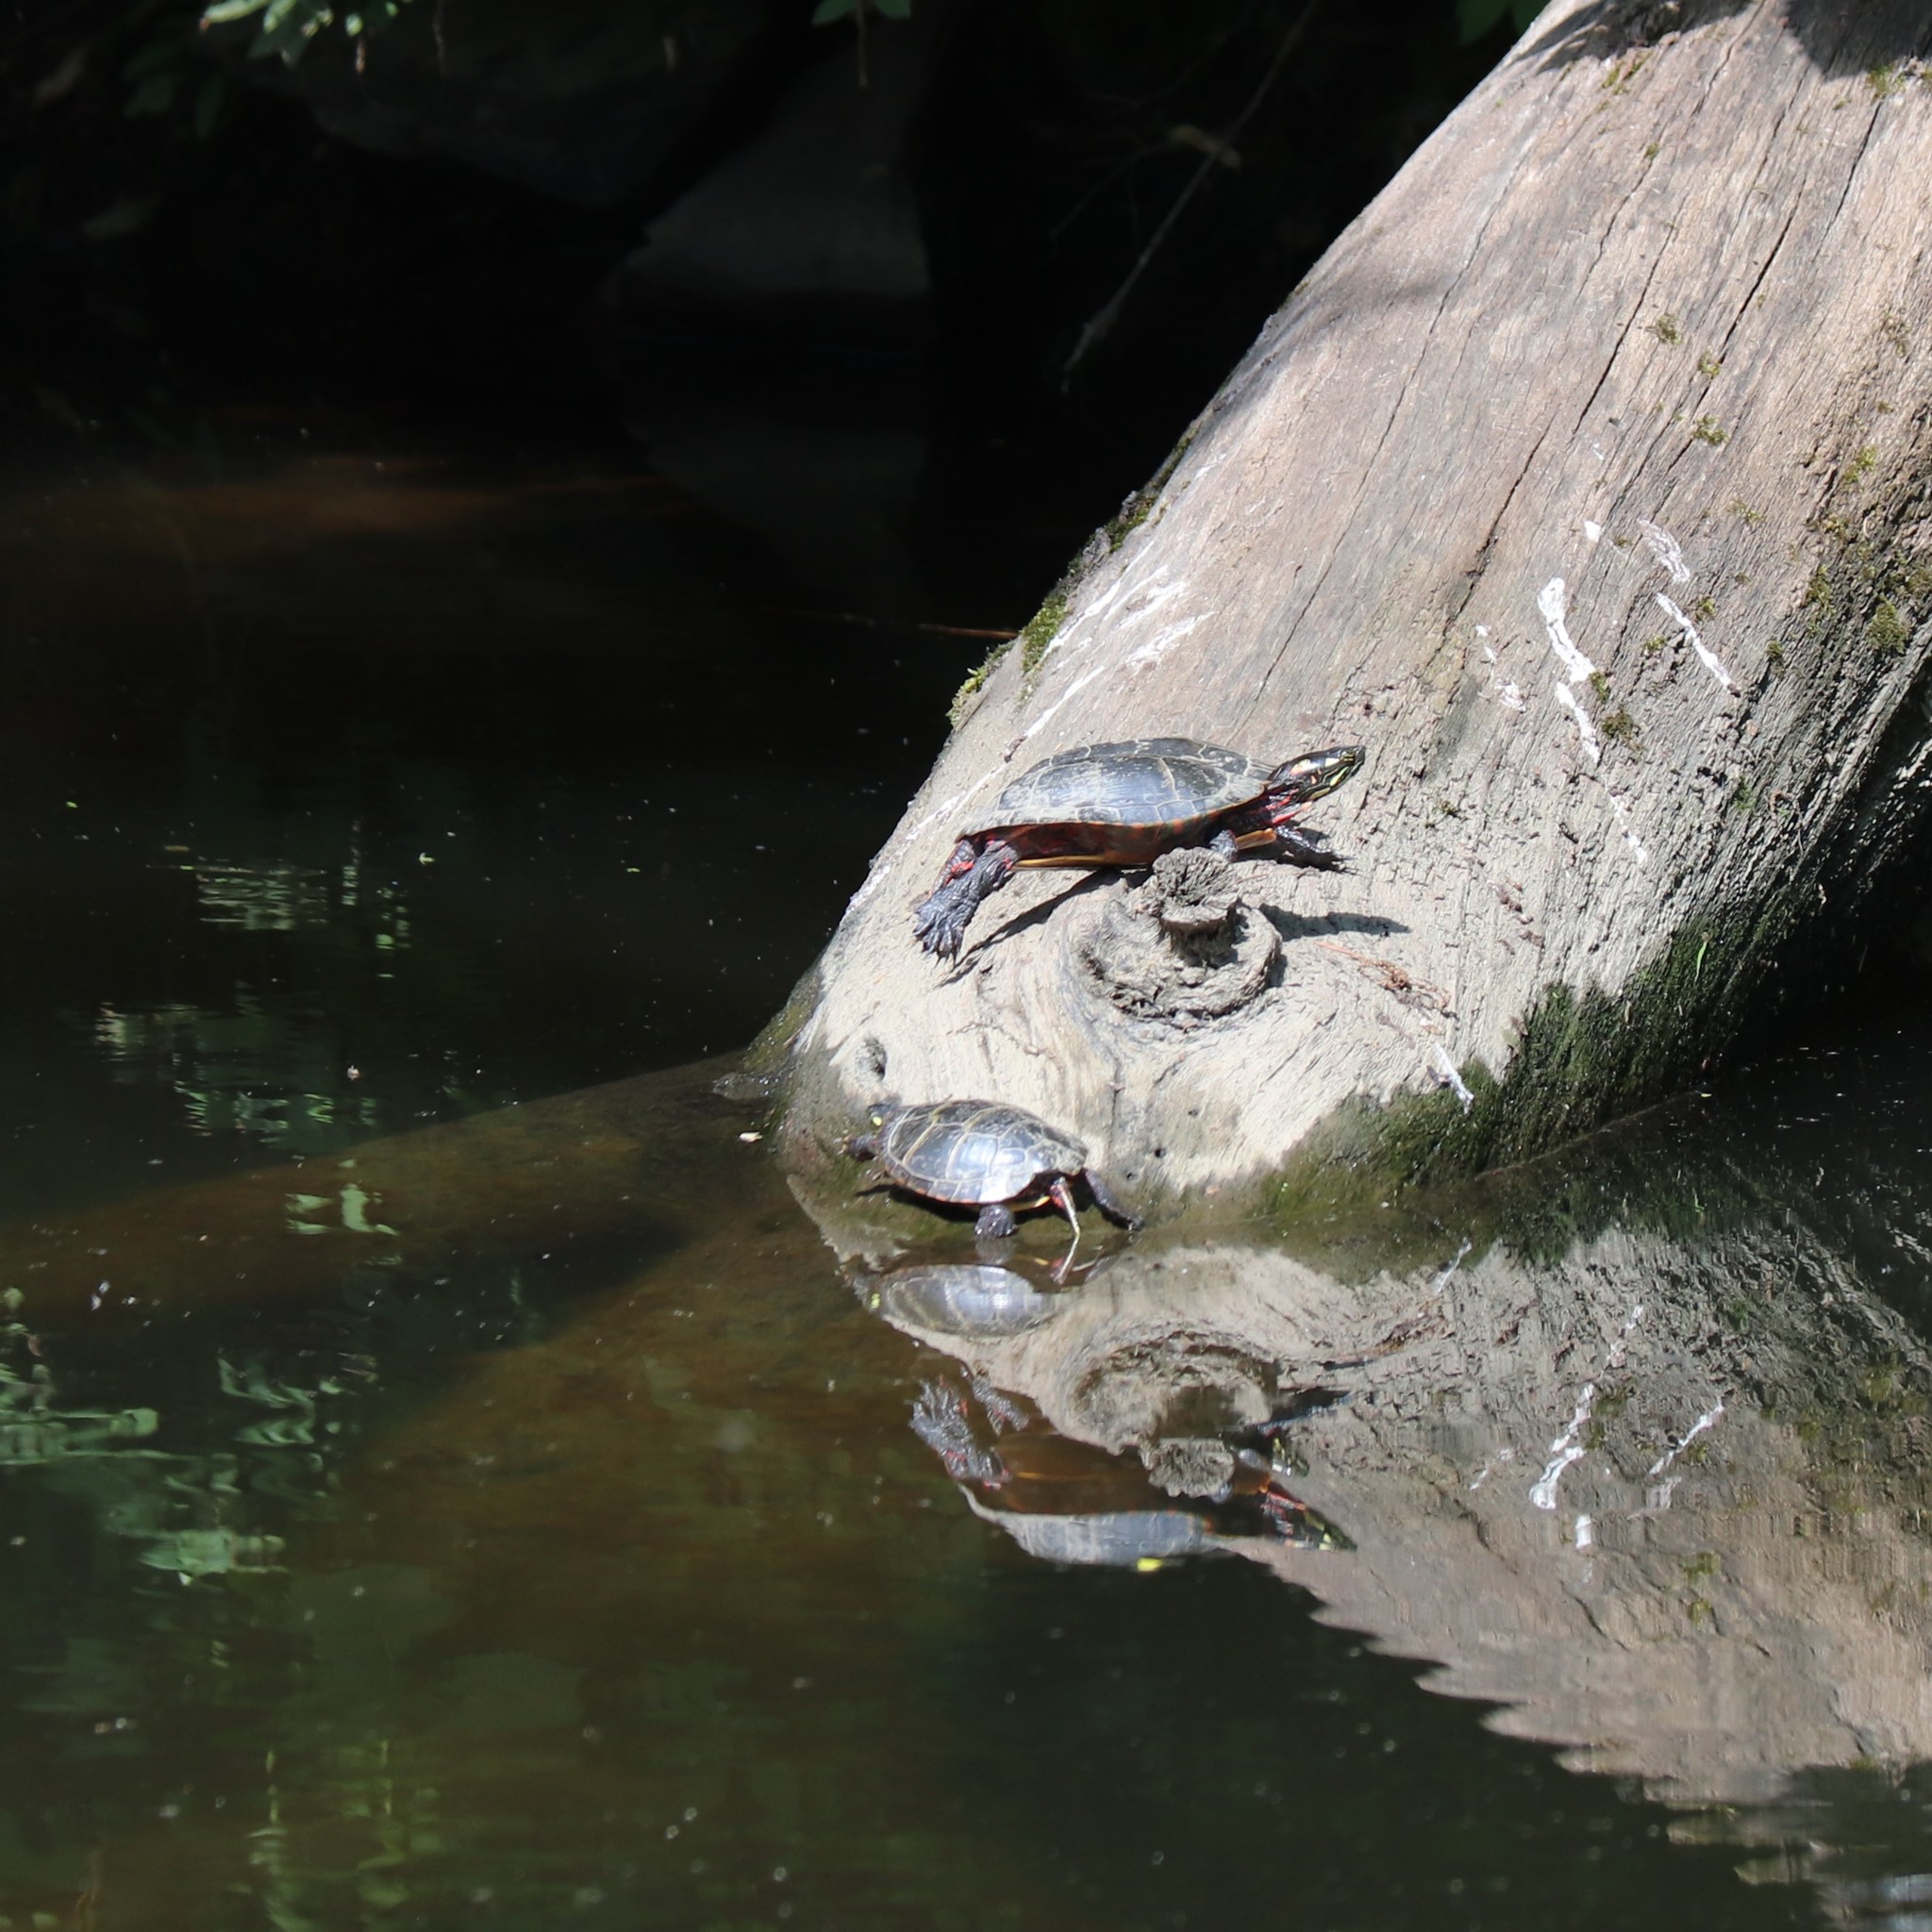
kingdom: Animalia
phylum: Chordata
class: Testudines
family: Emydidae
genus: Chrysemys
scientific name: Chrysemys picta
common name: Painted turtle
